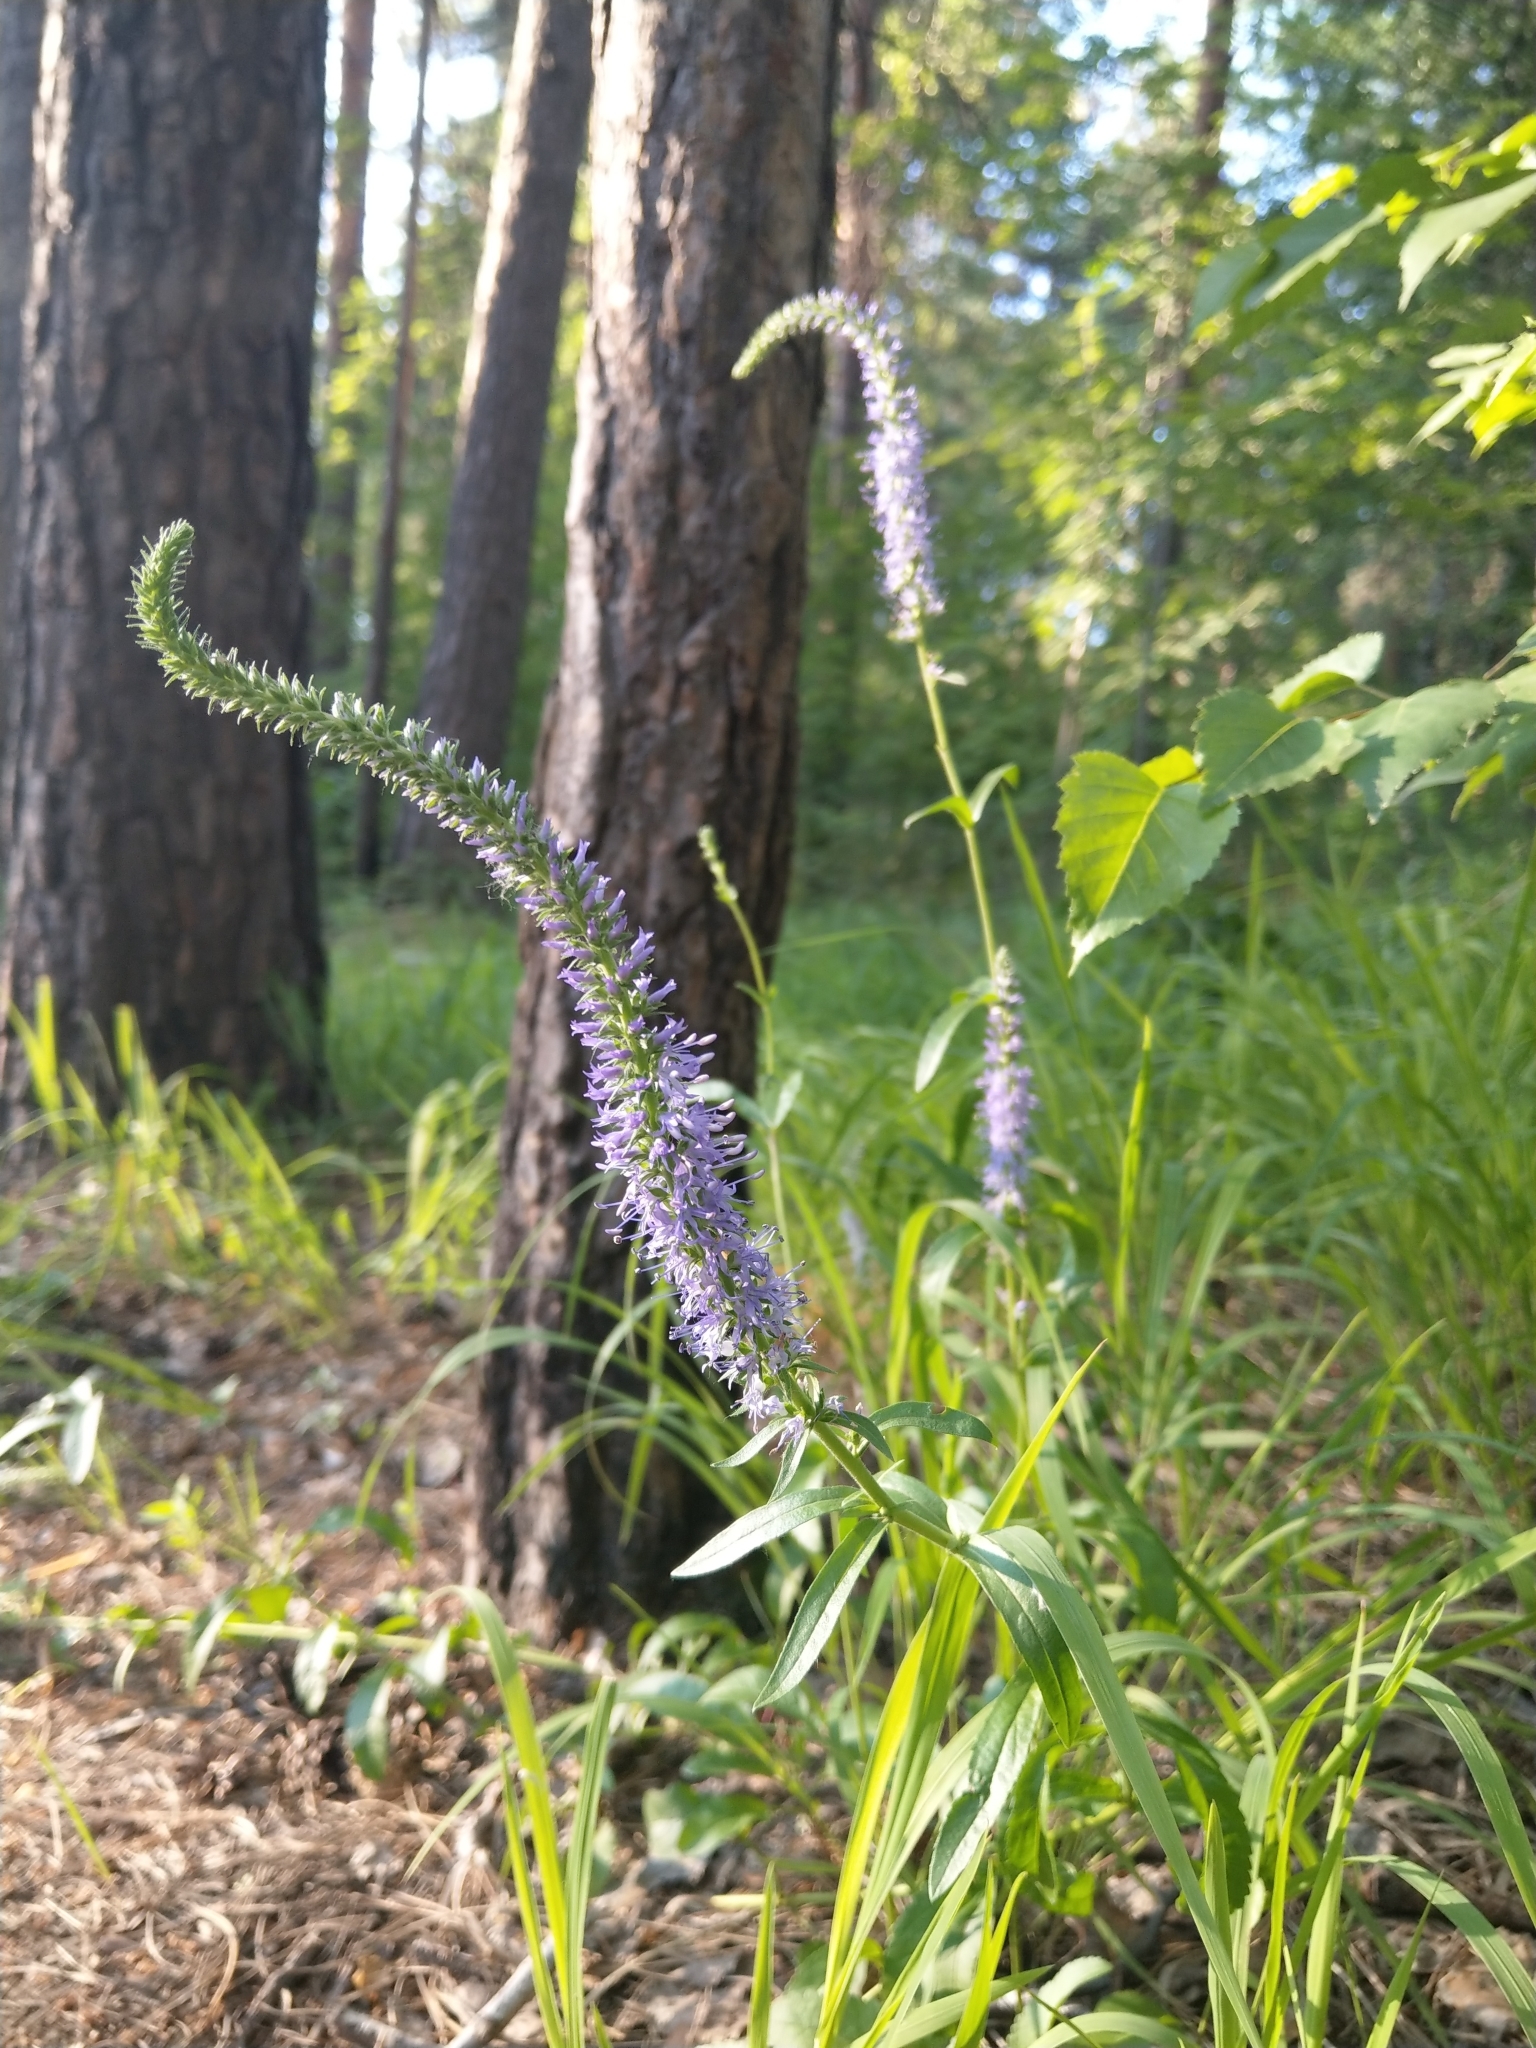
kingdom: Plantae
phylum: Tracheophyta
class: Magnoliopsida
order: Lamiales
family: Plantaginaceae
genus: Veronica
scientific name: Veronica spicata
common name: Spiked speedwell
